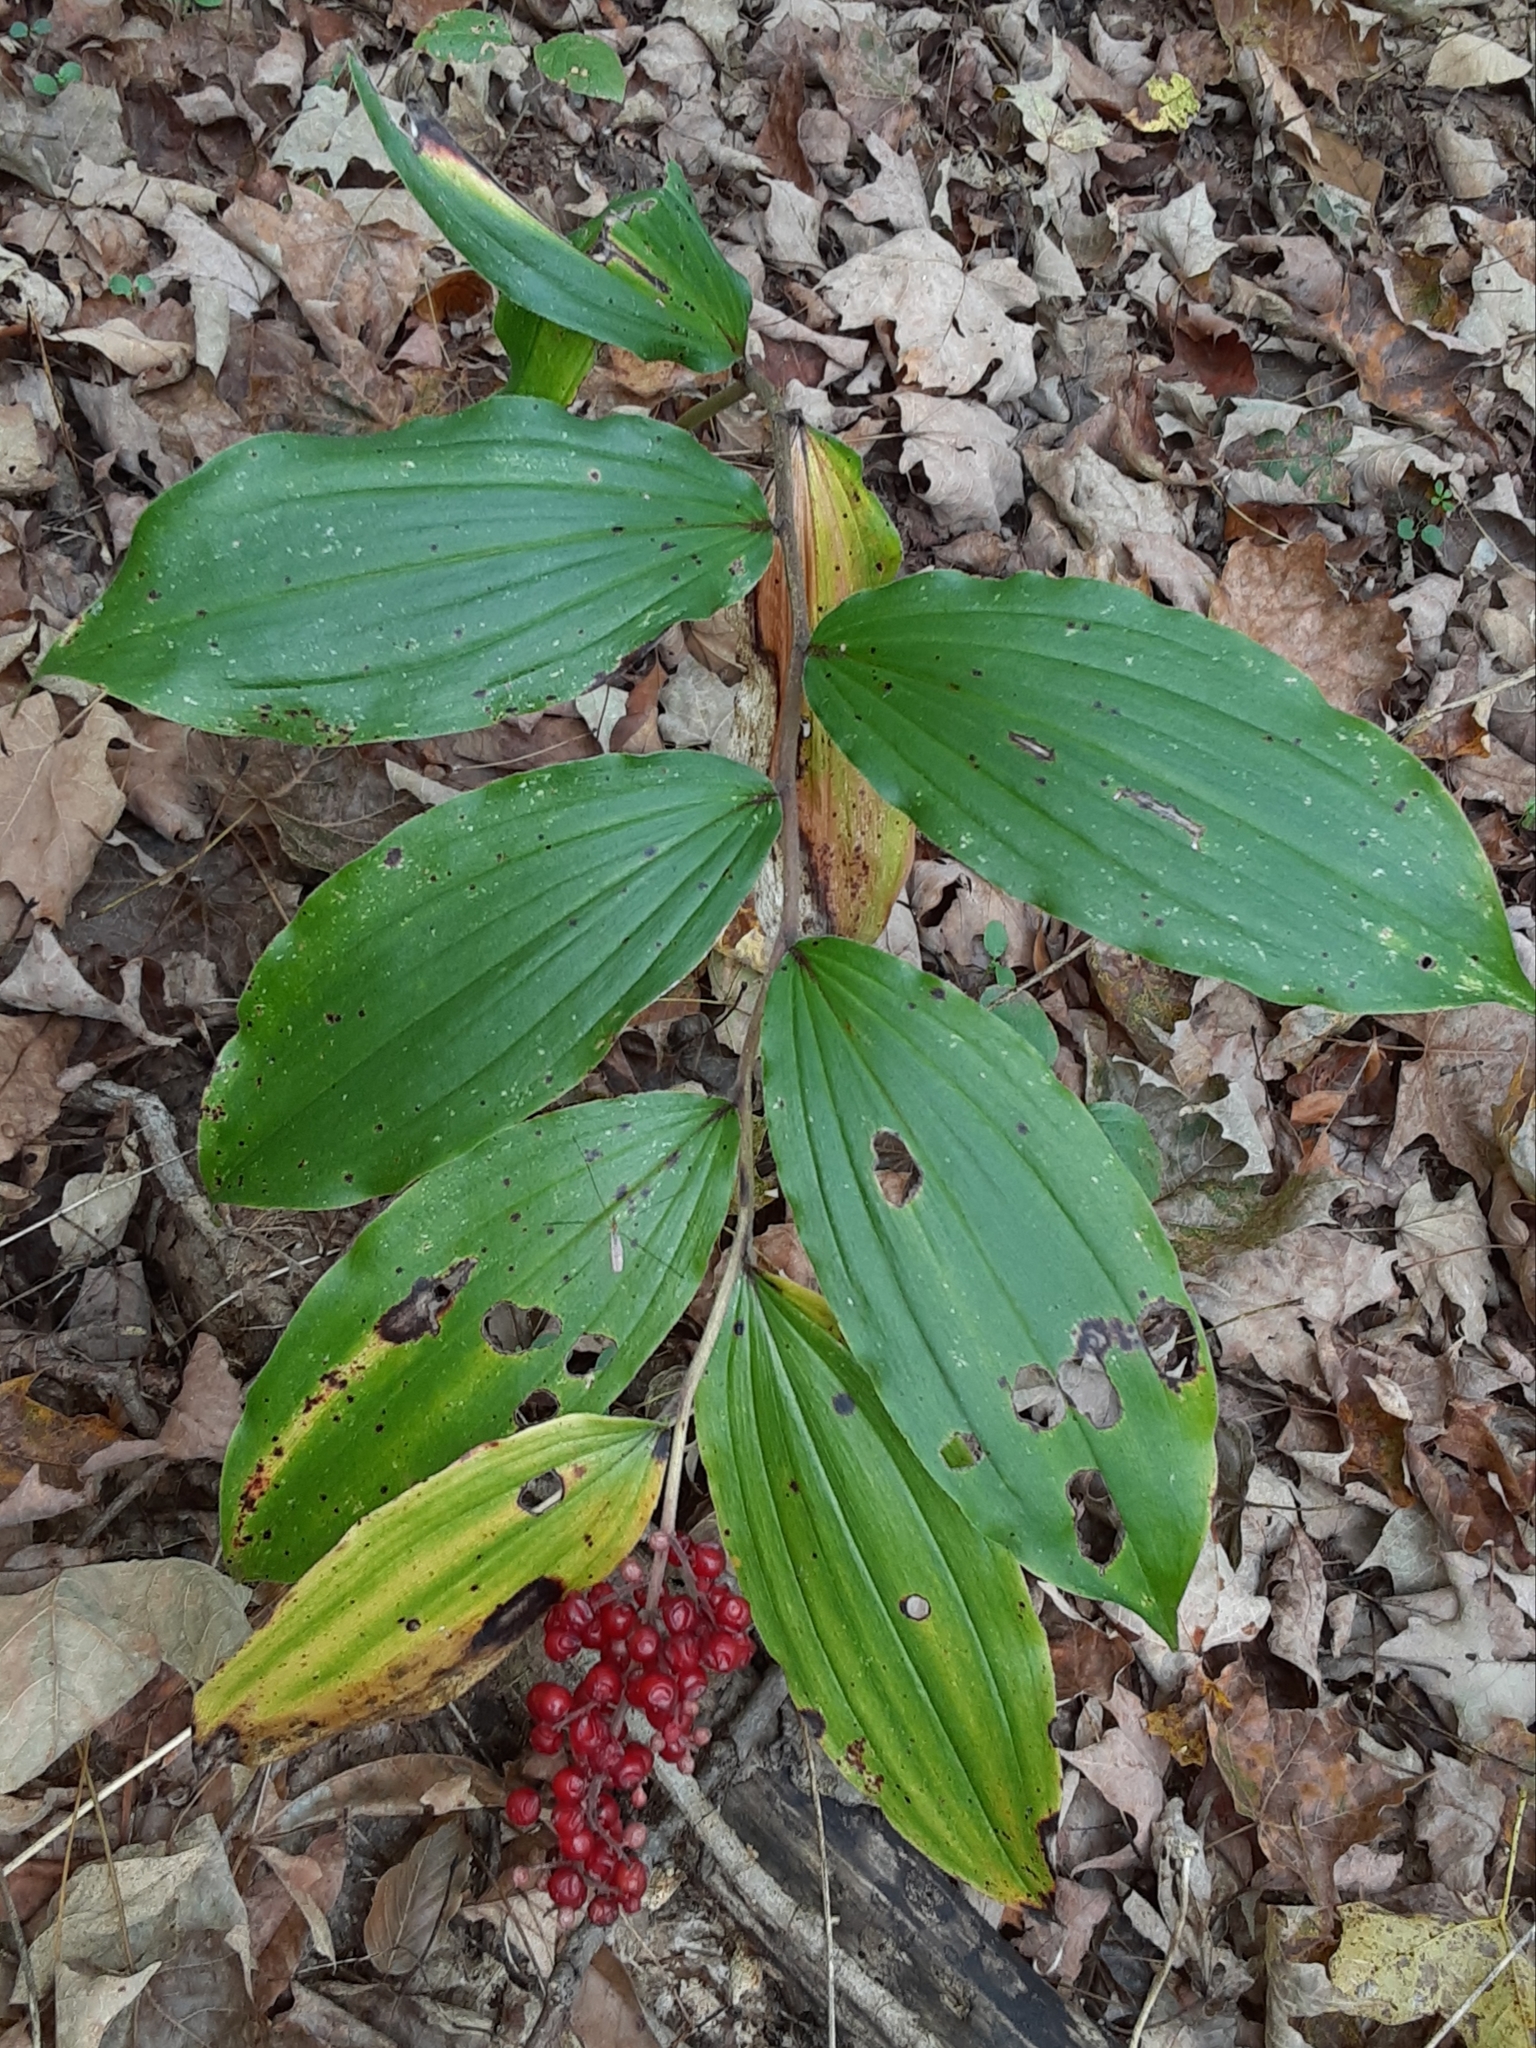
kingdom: Plantae
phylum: Tracheophyta
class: Liliopsida
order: Asparagales
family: Asparagaceae
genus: Maianthemum
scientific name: Maianthemum racemosum
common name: False spikenard
